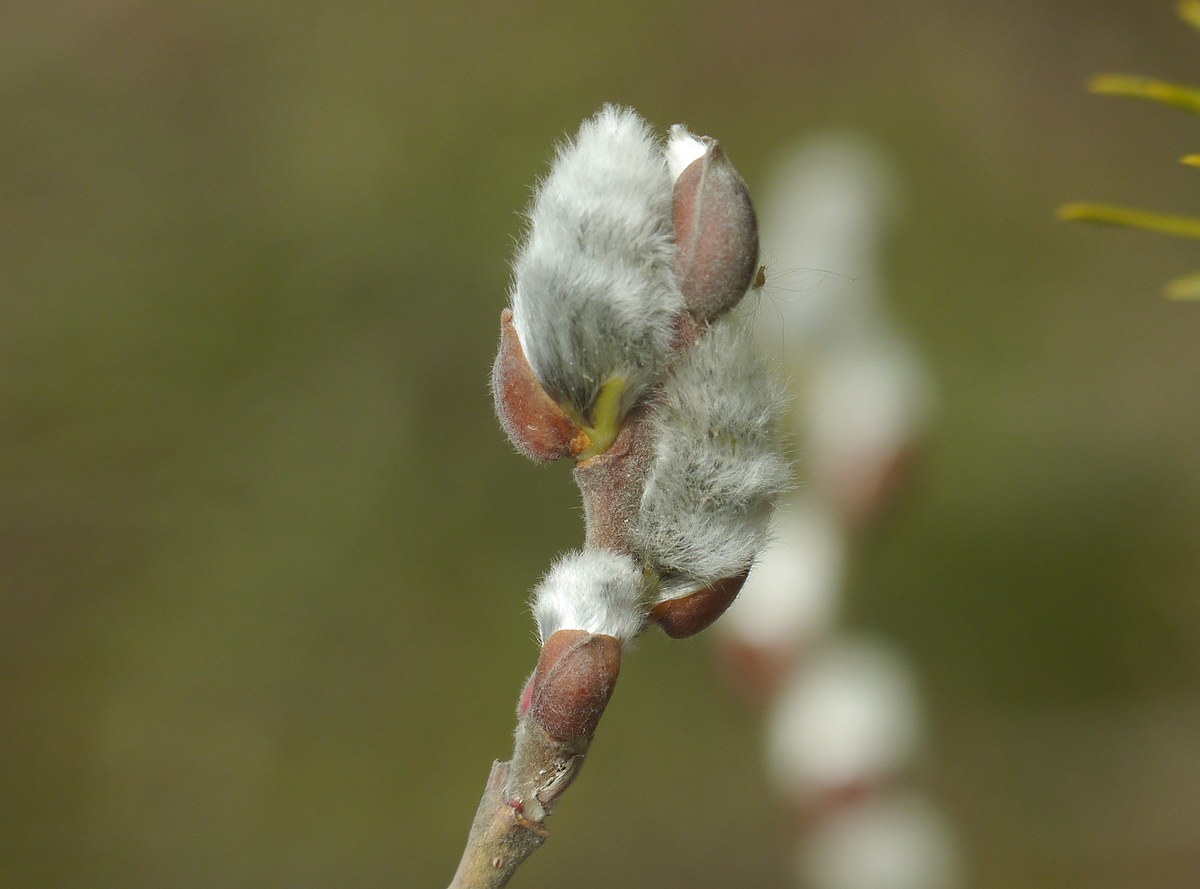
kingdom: Plantae
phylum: Tracheophyta
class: Magnoliopsida
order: Malpighiales
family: Salicaceae
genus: Salix
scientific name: Salix cinerea
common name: Common sallow
